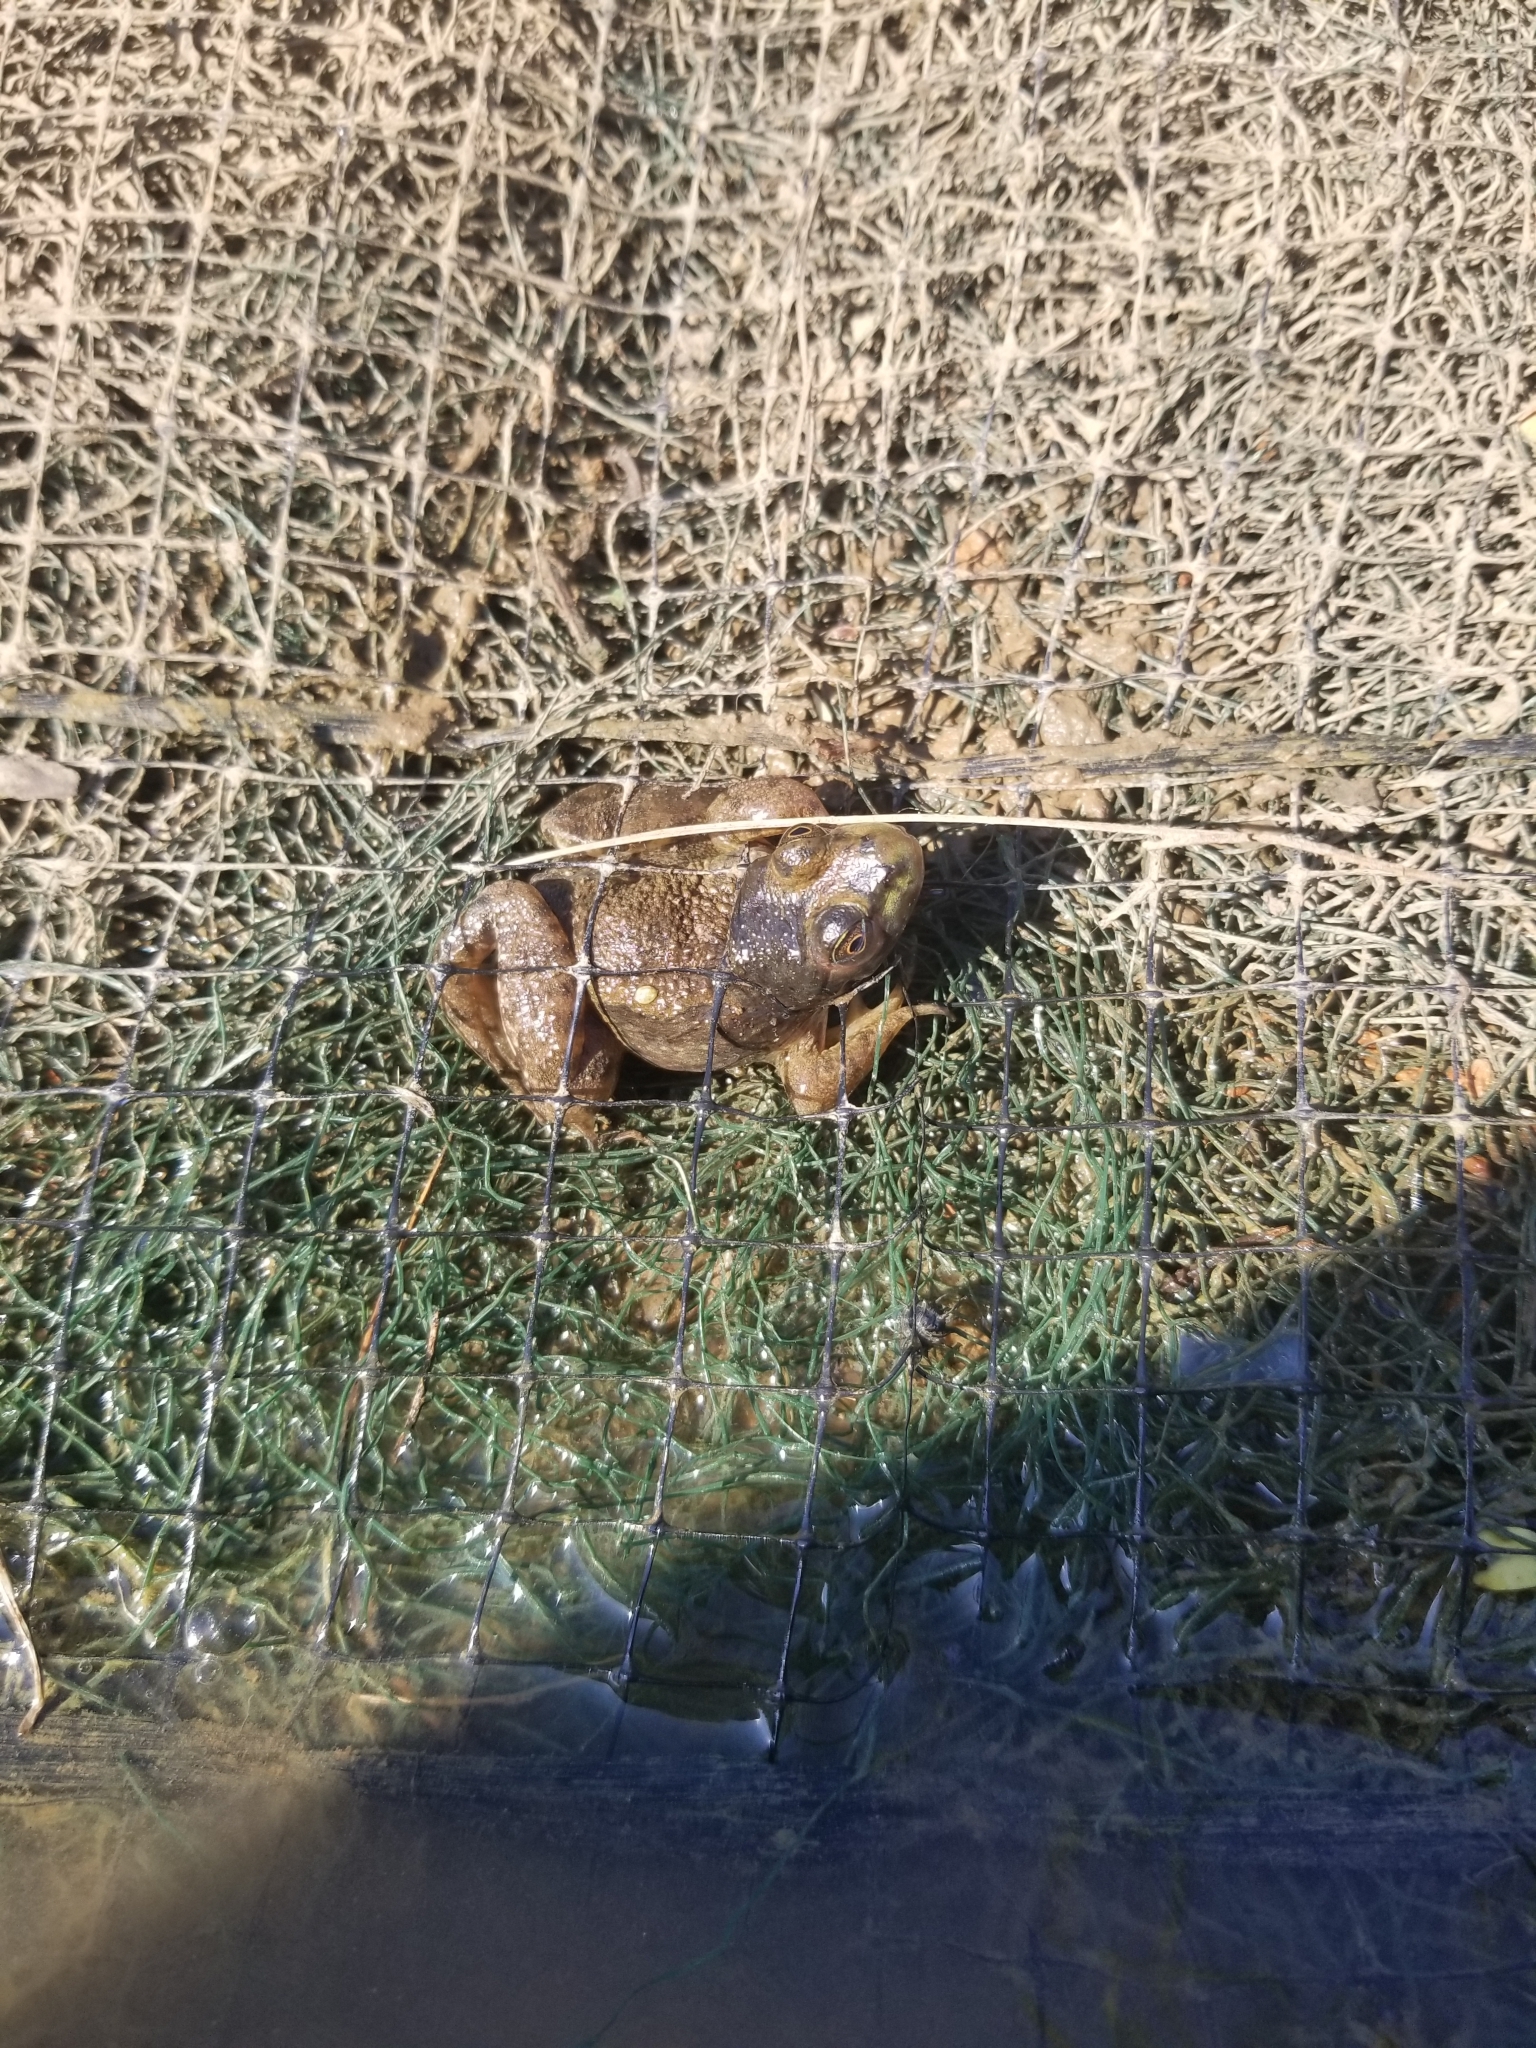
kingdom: Animalia
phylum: Chordata
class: Amphibia
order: Anura
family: Ranidae
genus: Lithobates
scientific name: Lithobates catesbeianus
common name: American bullfrog
